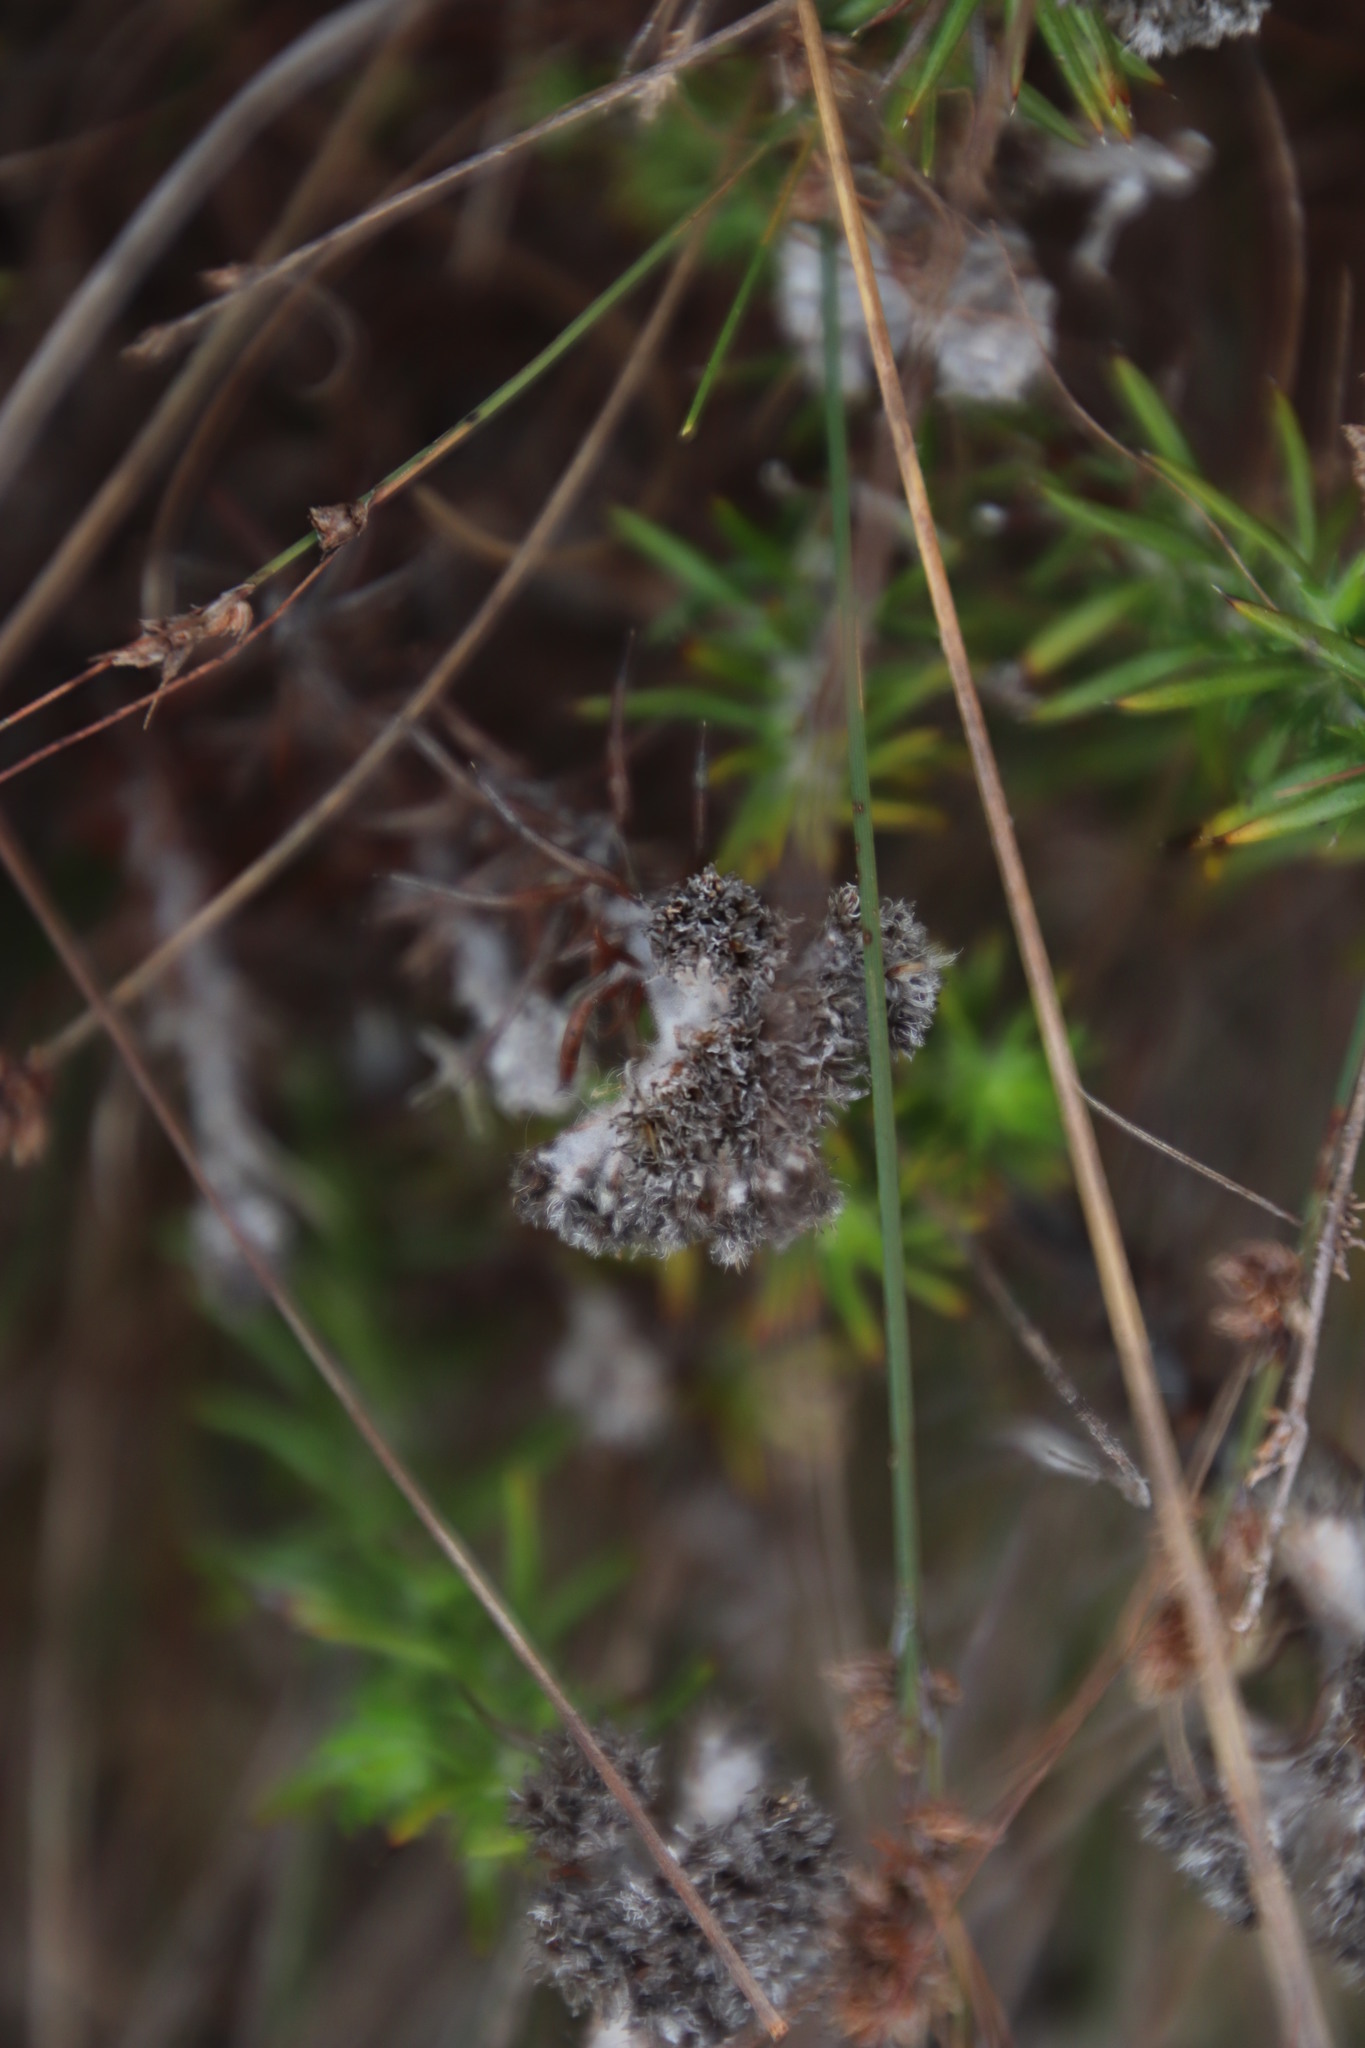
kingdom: Plantae
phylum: Tracheophyta
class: Magnoliopsida
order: Asterales
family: Asteraceae
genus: Metalasia
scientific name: Metalasia pulchella
